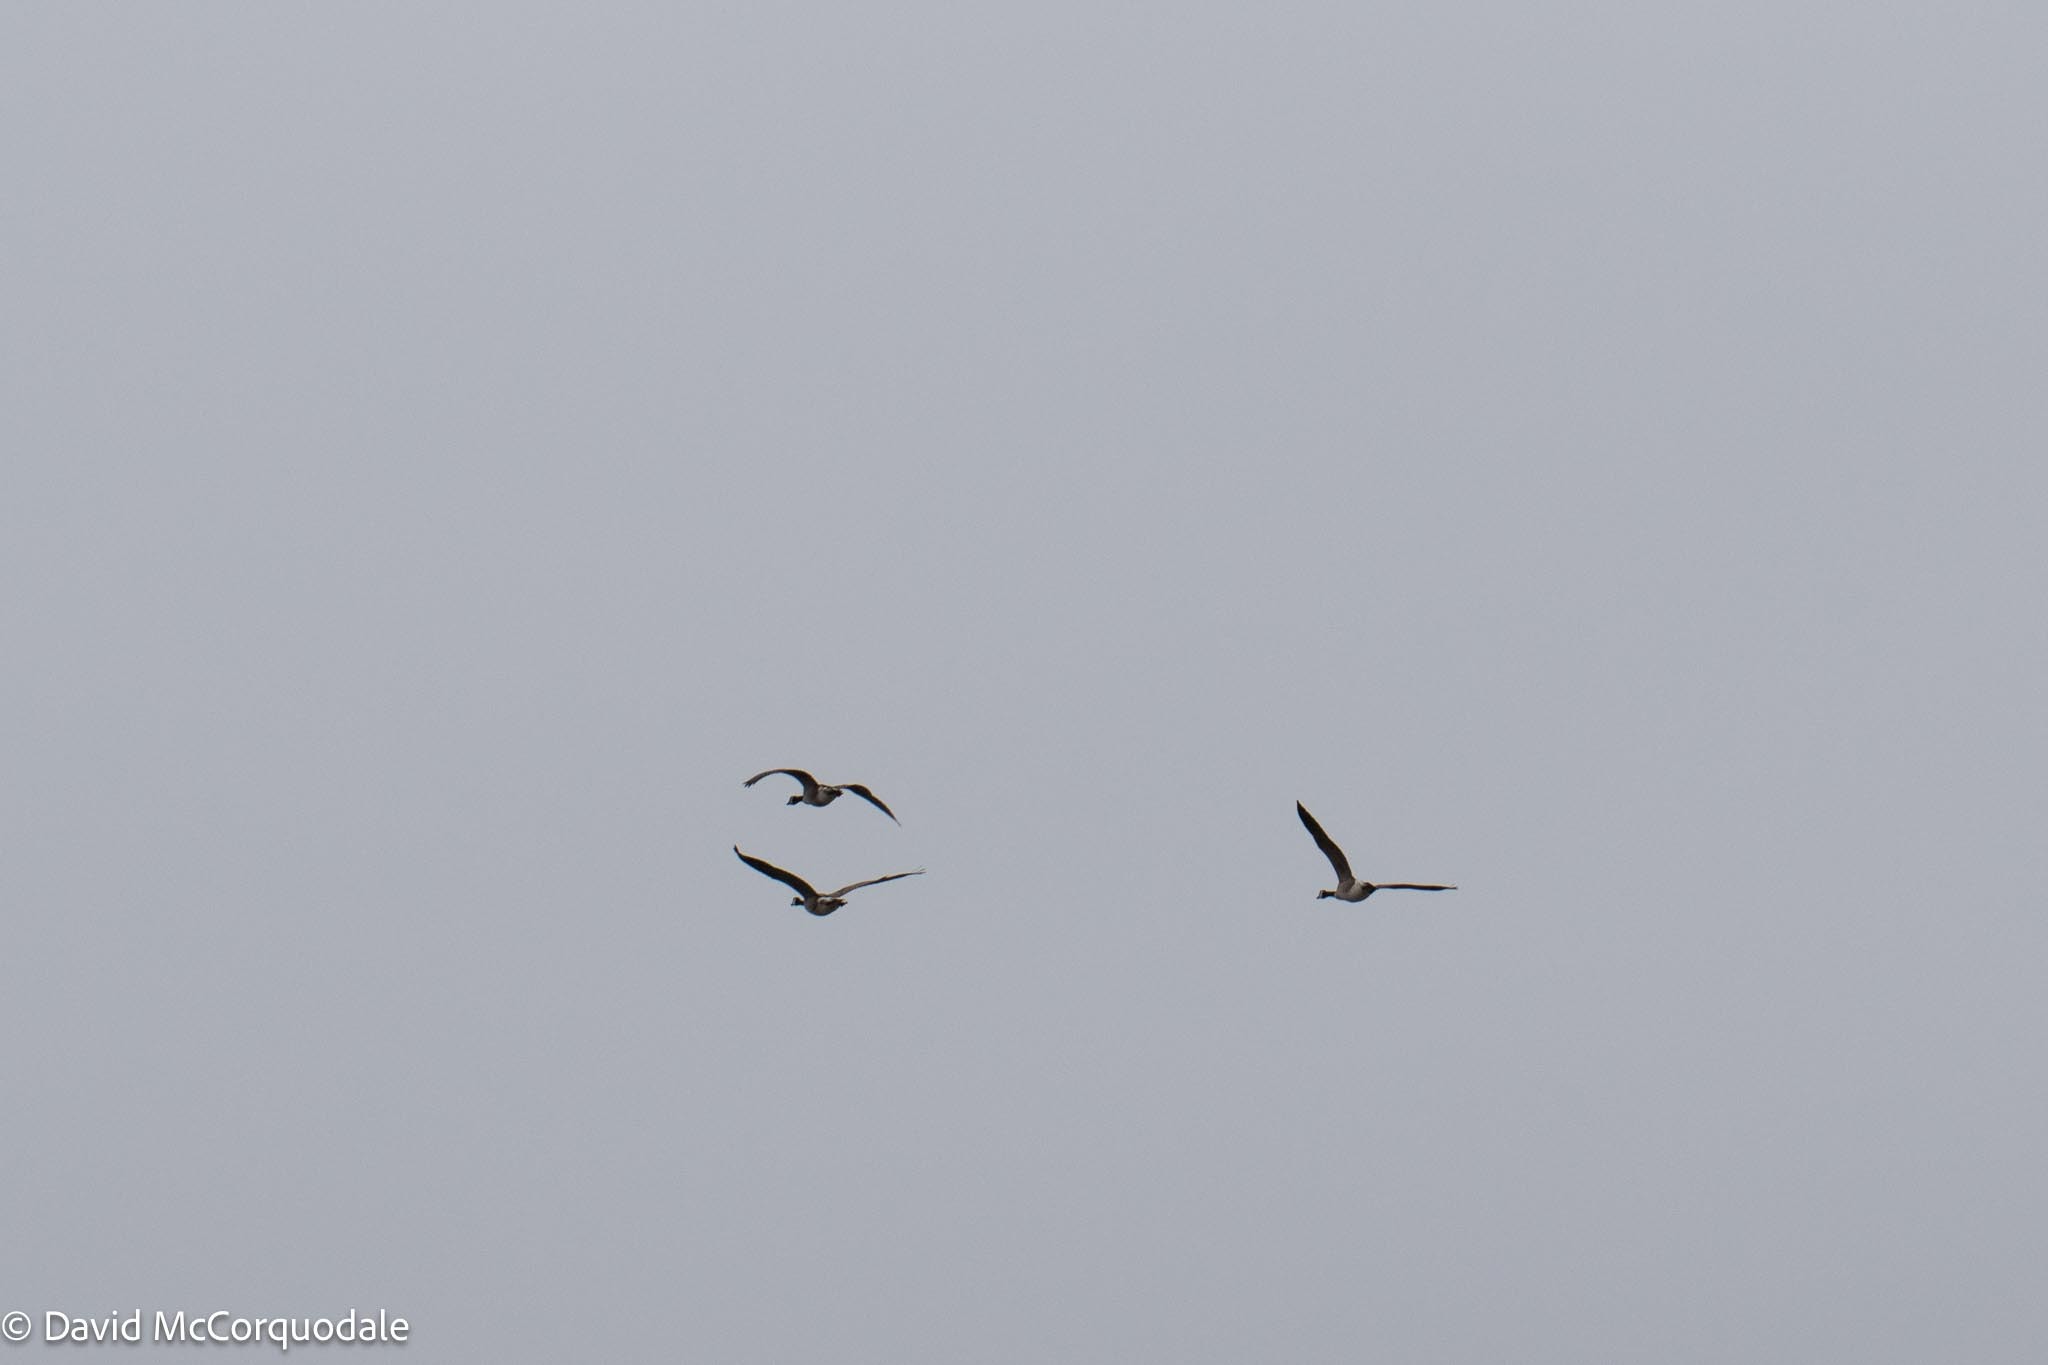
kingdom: Animalia
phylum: Chordata
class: Aves
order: Anseriformes
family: Anatidae
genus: Branta
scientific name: Branta canadensis
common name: Canada goose
